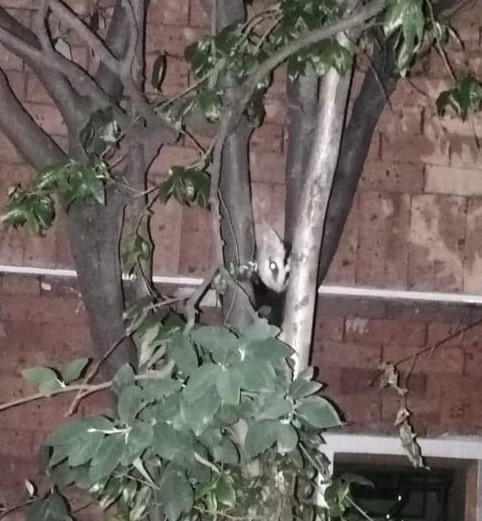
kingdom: Animalia
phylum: Chordata
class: Mammalia
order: Didelphimorphia
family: Didelphidae
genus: Didelphis
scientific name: Didelphis pernigra
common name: Andean white-eared opossum
